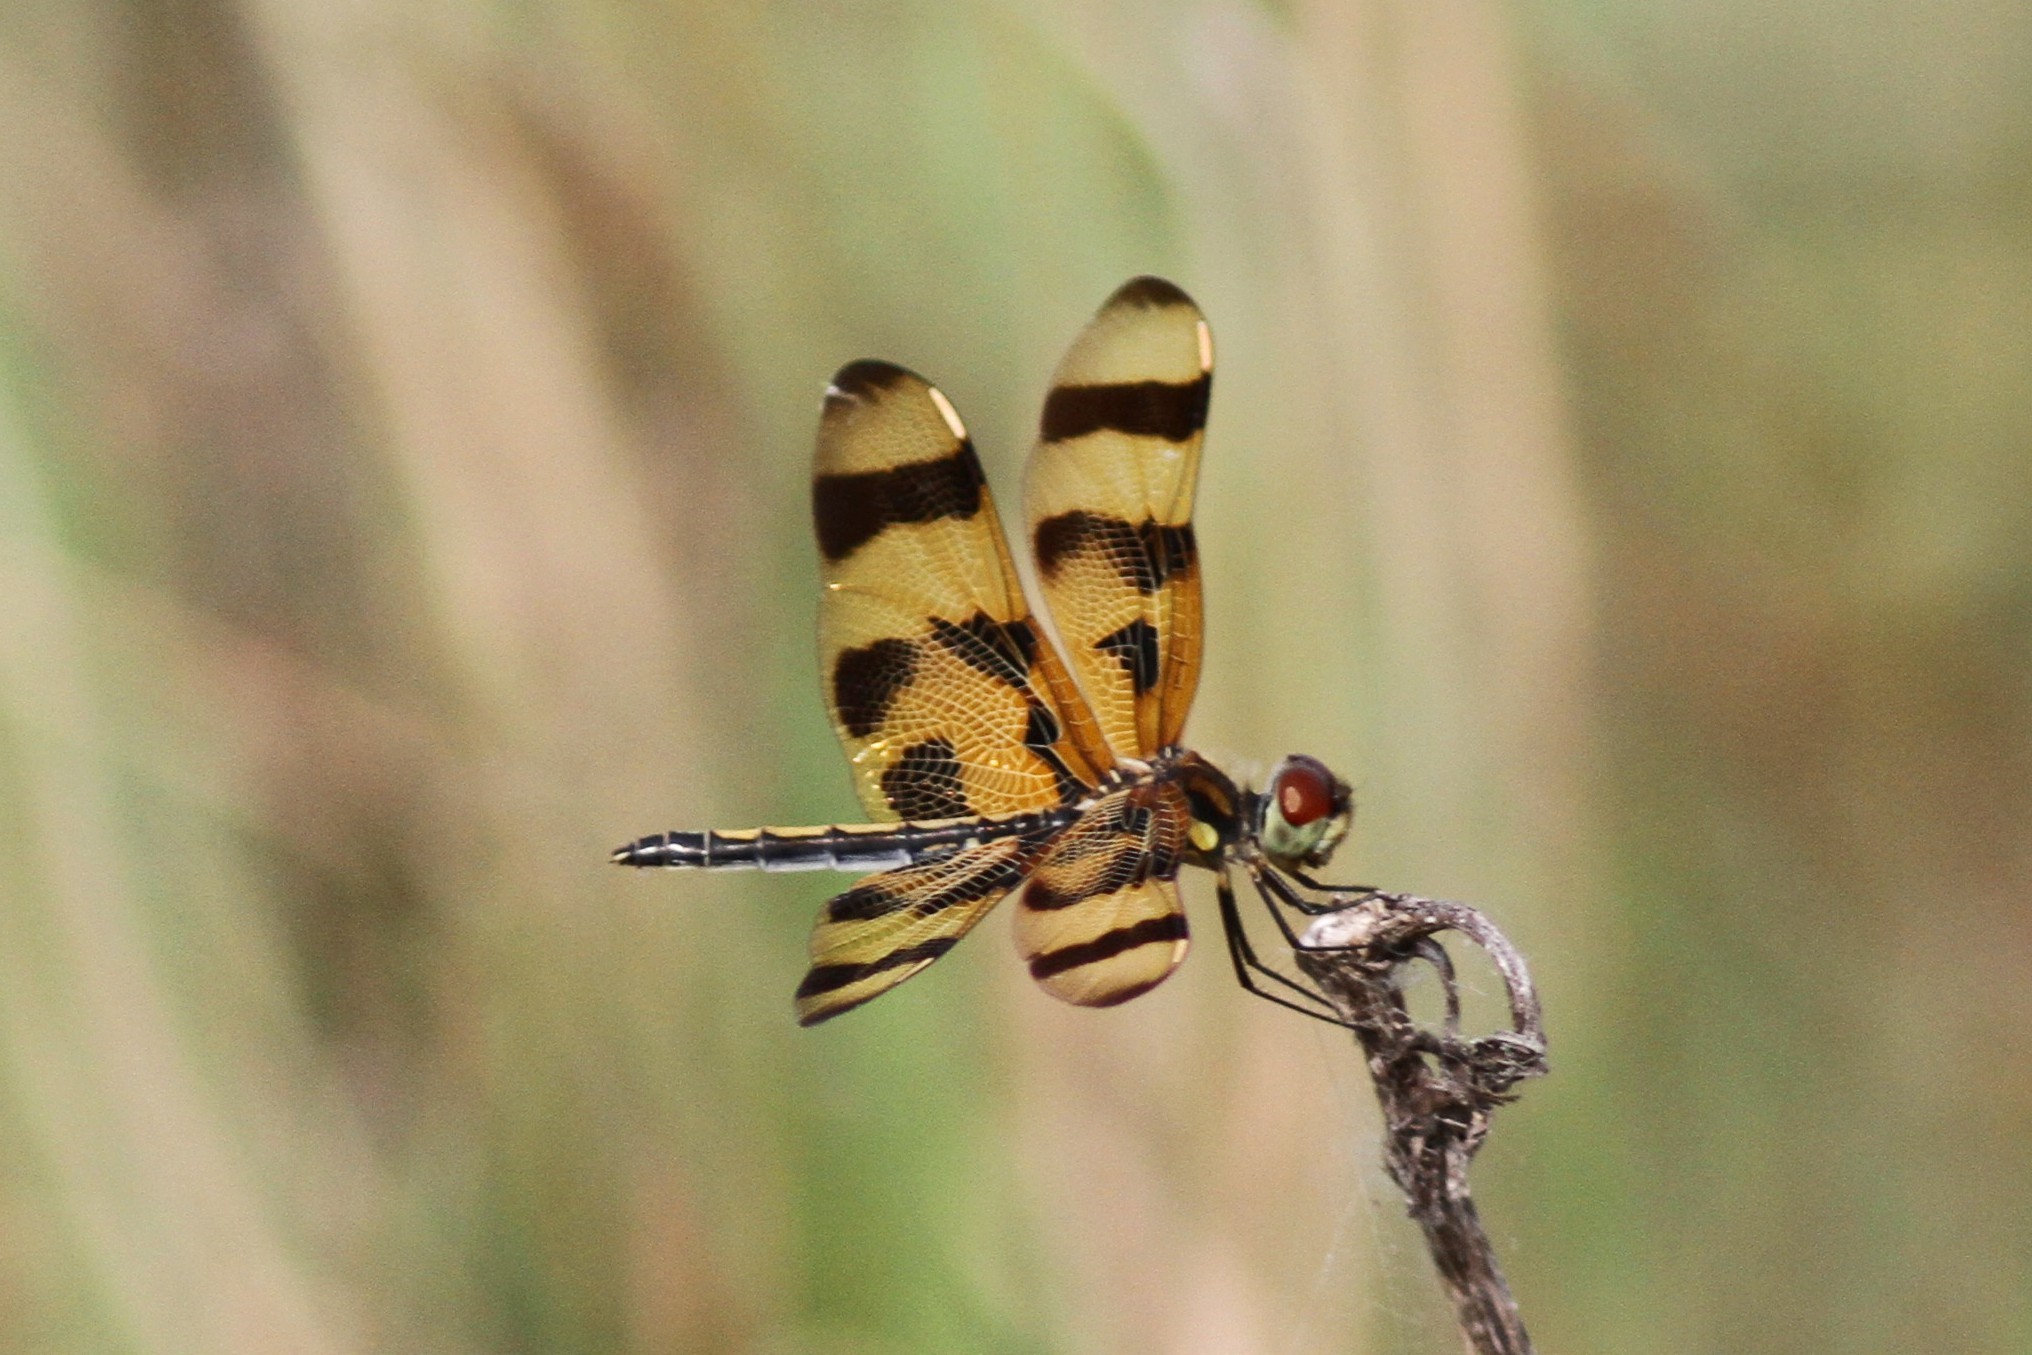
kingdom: Animalia
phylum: Arthropoda
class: Insecta
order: Odonata
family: Libellulidae
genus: Celithemis
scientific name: Celithemis eponina
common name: Halloween pennant
